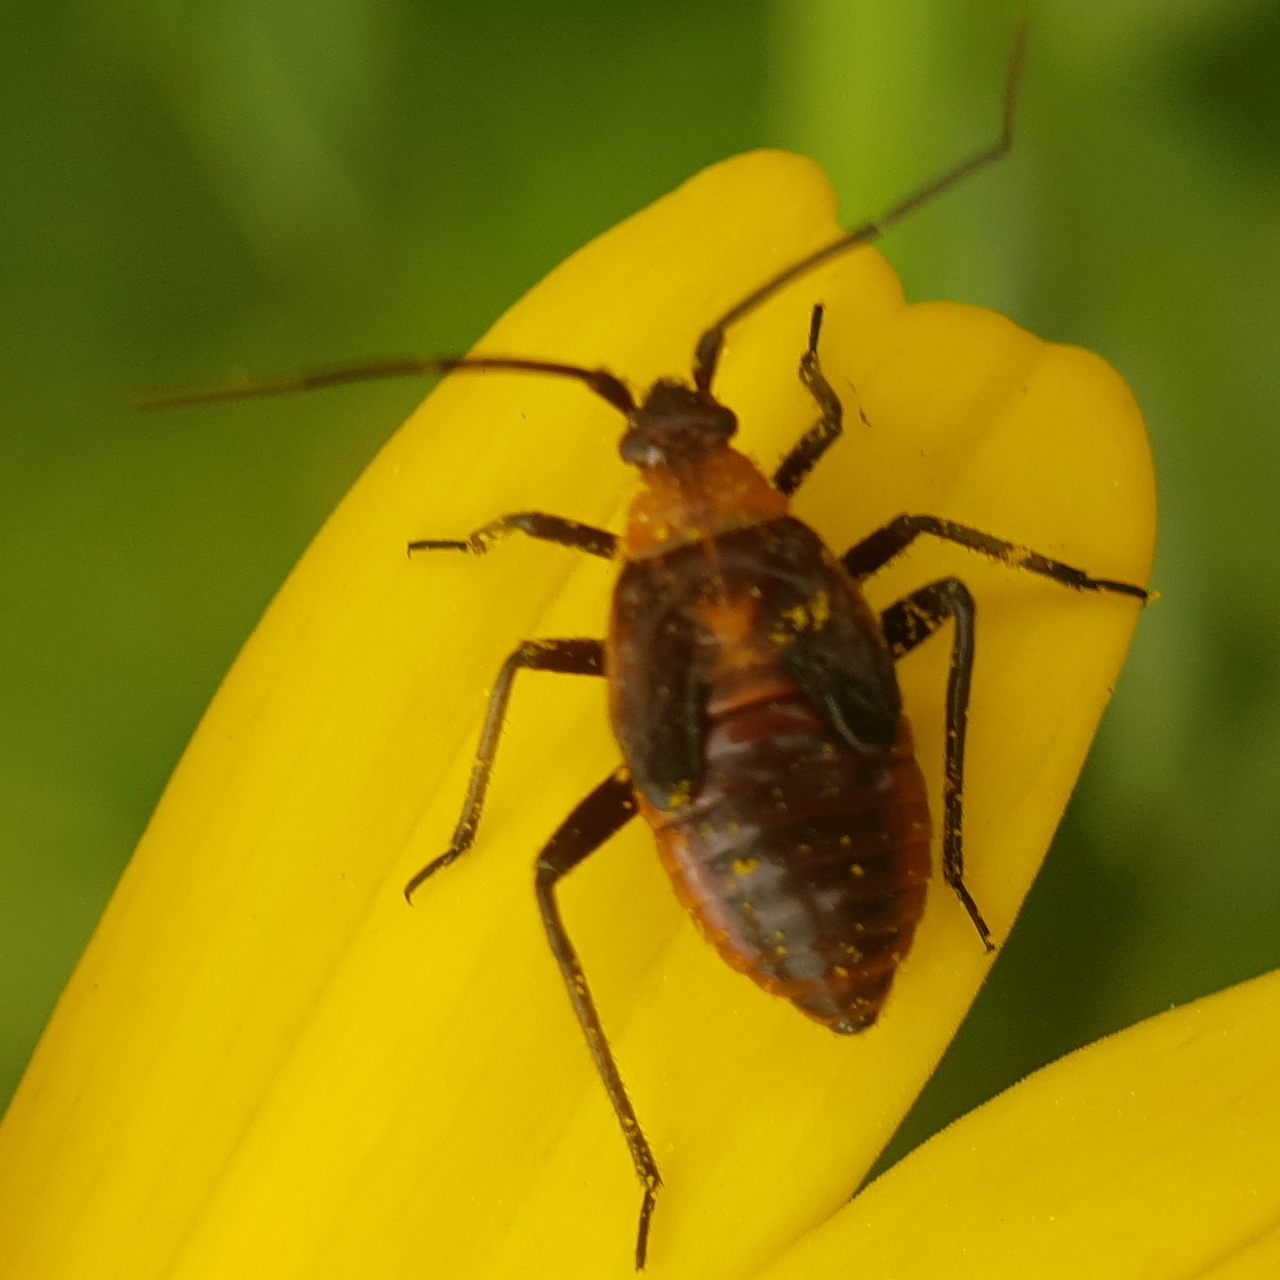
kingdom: Animalia
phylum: Arthropoda
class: Insecta
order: Hemiptera
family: Miridae
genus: Calocoris
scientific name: Calocoris nemoralis
